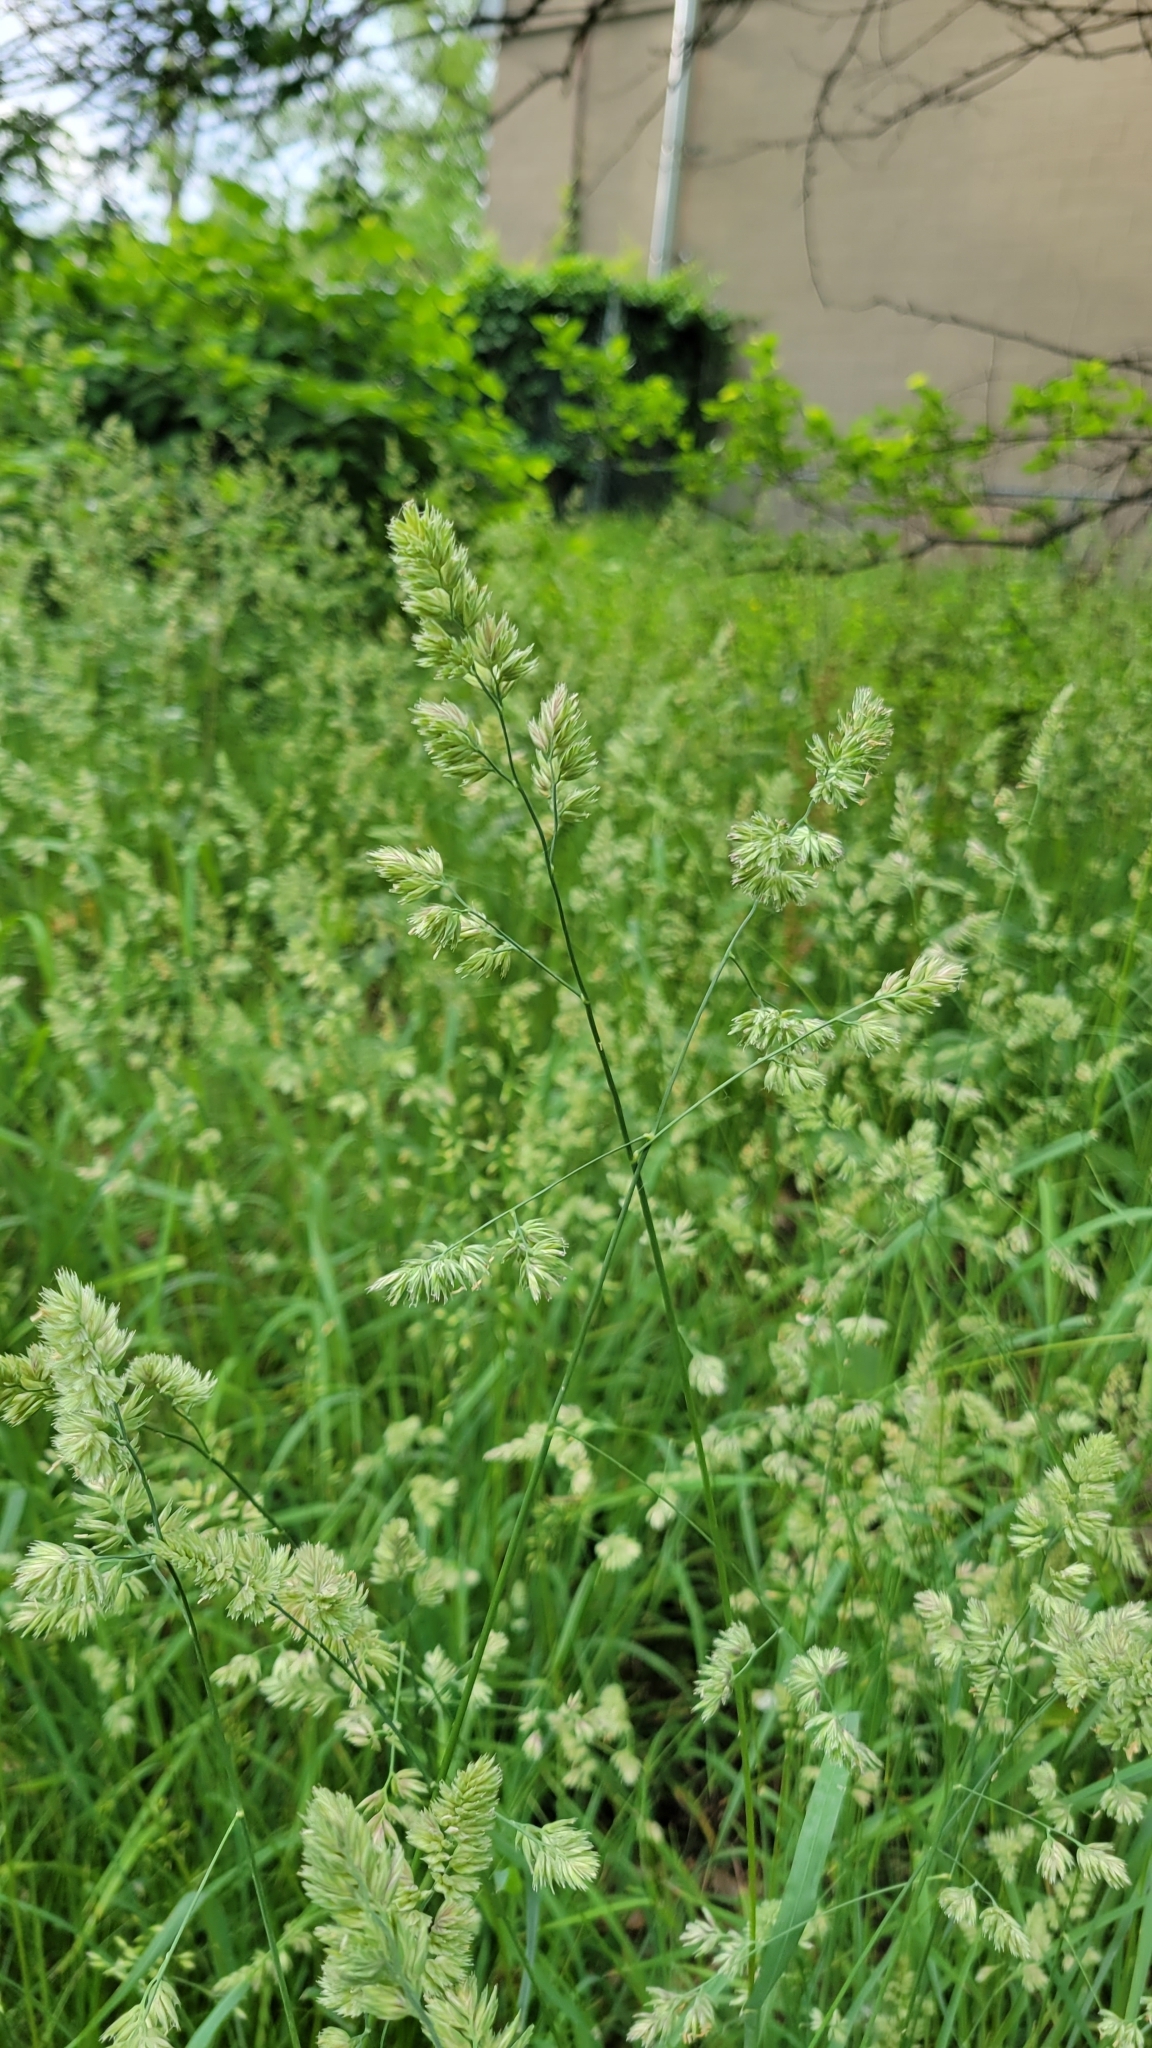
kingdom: Plantae
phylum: Tracheophyta
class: Liliopsida
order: Poales
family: Poaceae
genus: Dactylis
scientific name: Dactylis glomerata
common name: Orchardgrass
